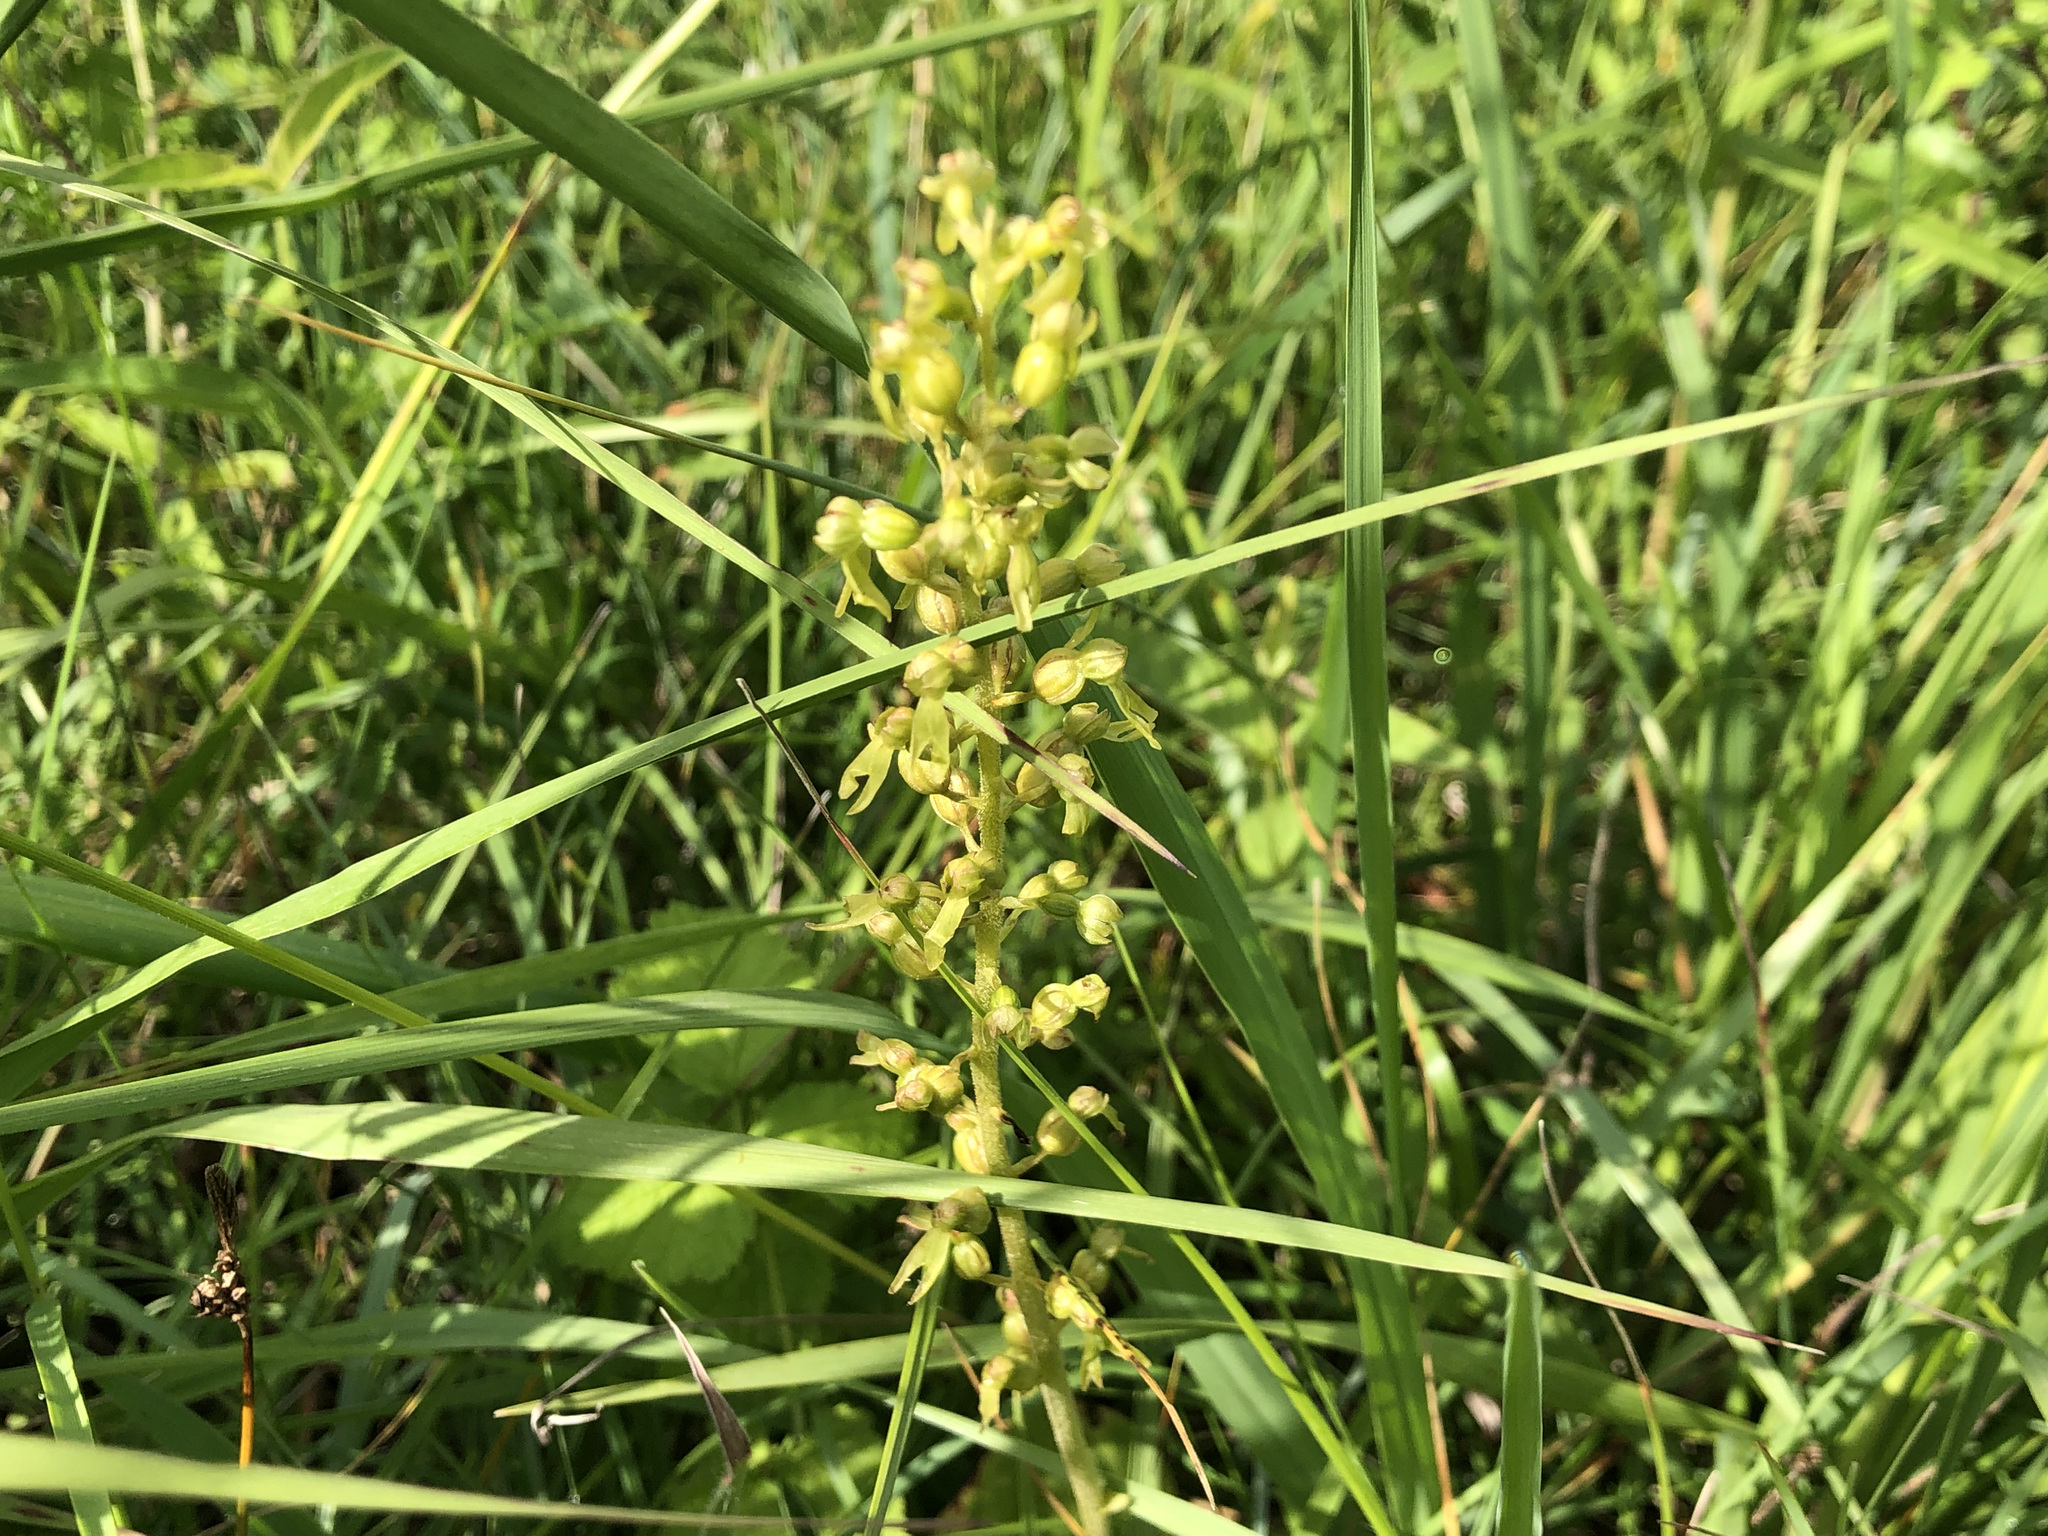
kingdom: Plantae
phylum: Tracheophyta
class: Liliopsida
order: Asparagales
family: Orchidaceae
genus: Neottia
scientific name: Neottia ovata
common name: Common twayblade
